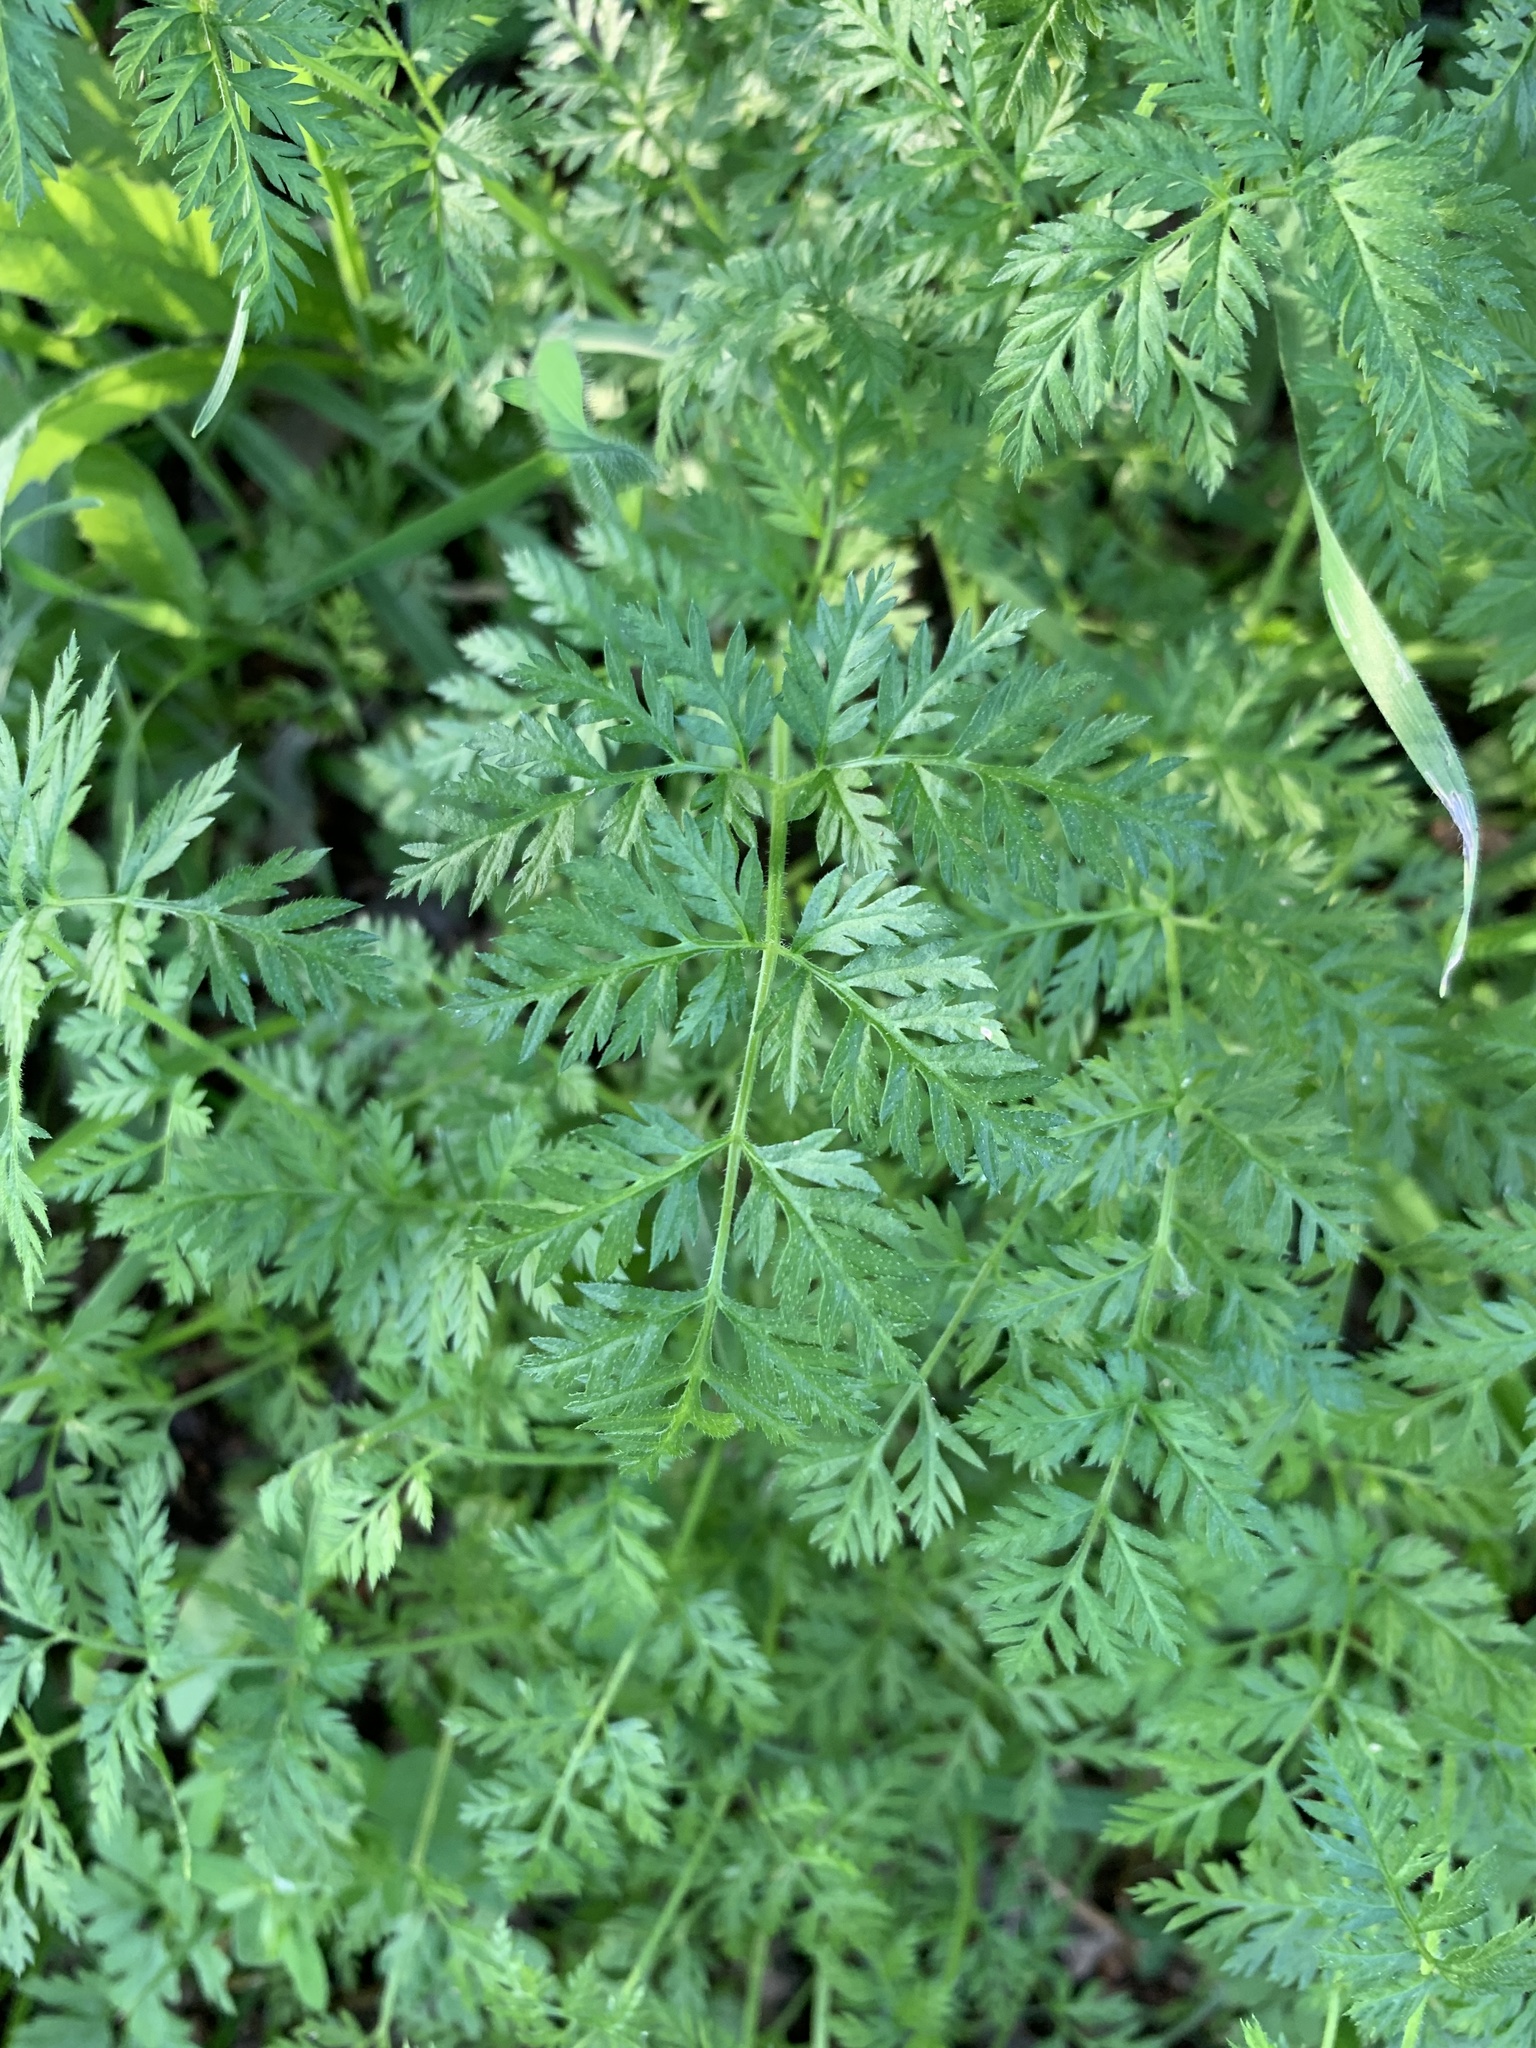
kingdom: Plantae
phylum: Tracheophyta
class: Magnoliopsida
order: Apiales
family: Apiaceae
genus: Torilis
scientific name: Torilis africana
